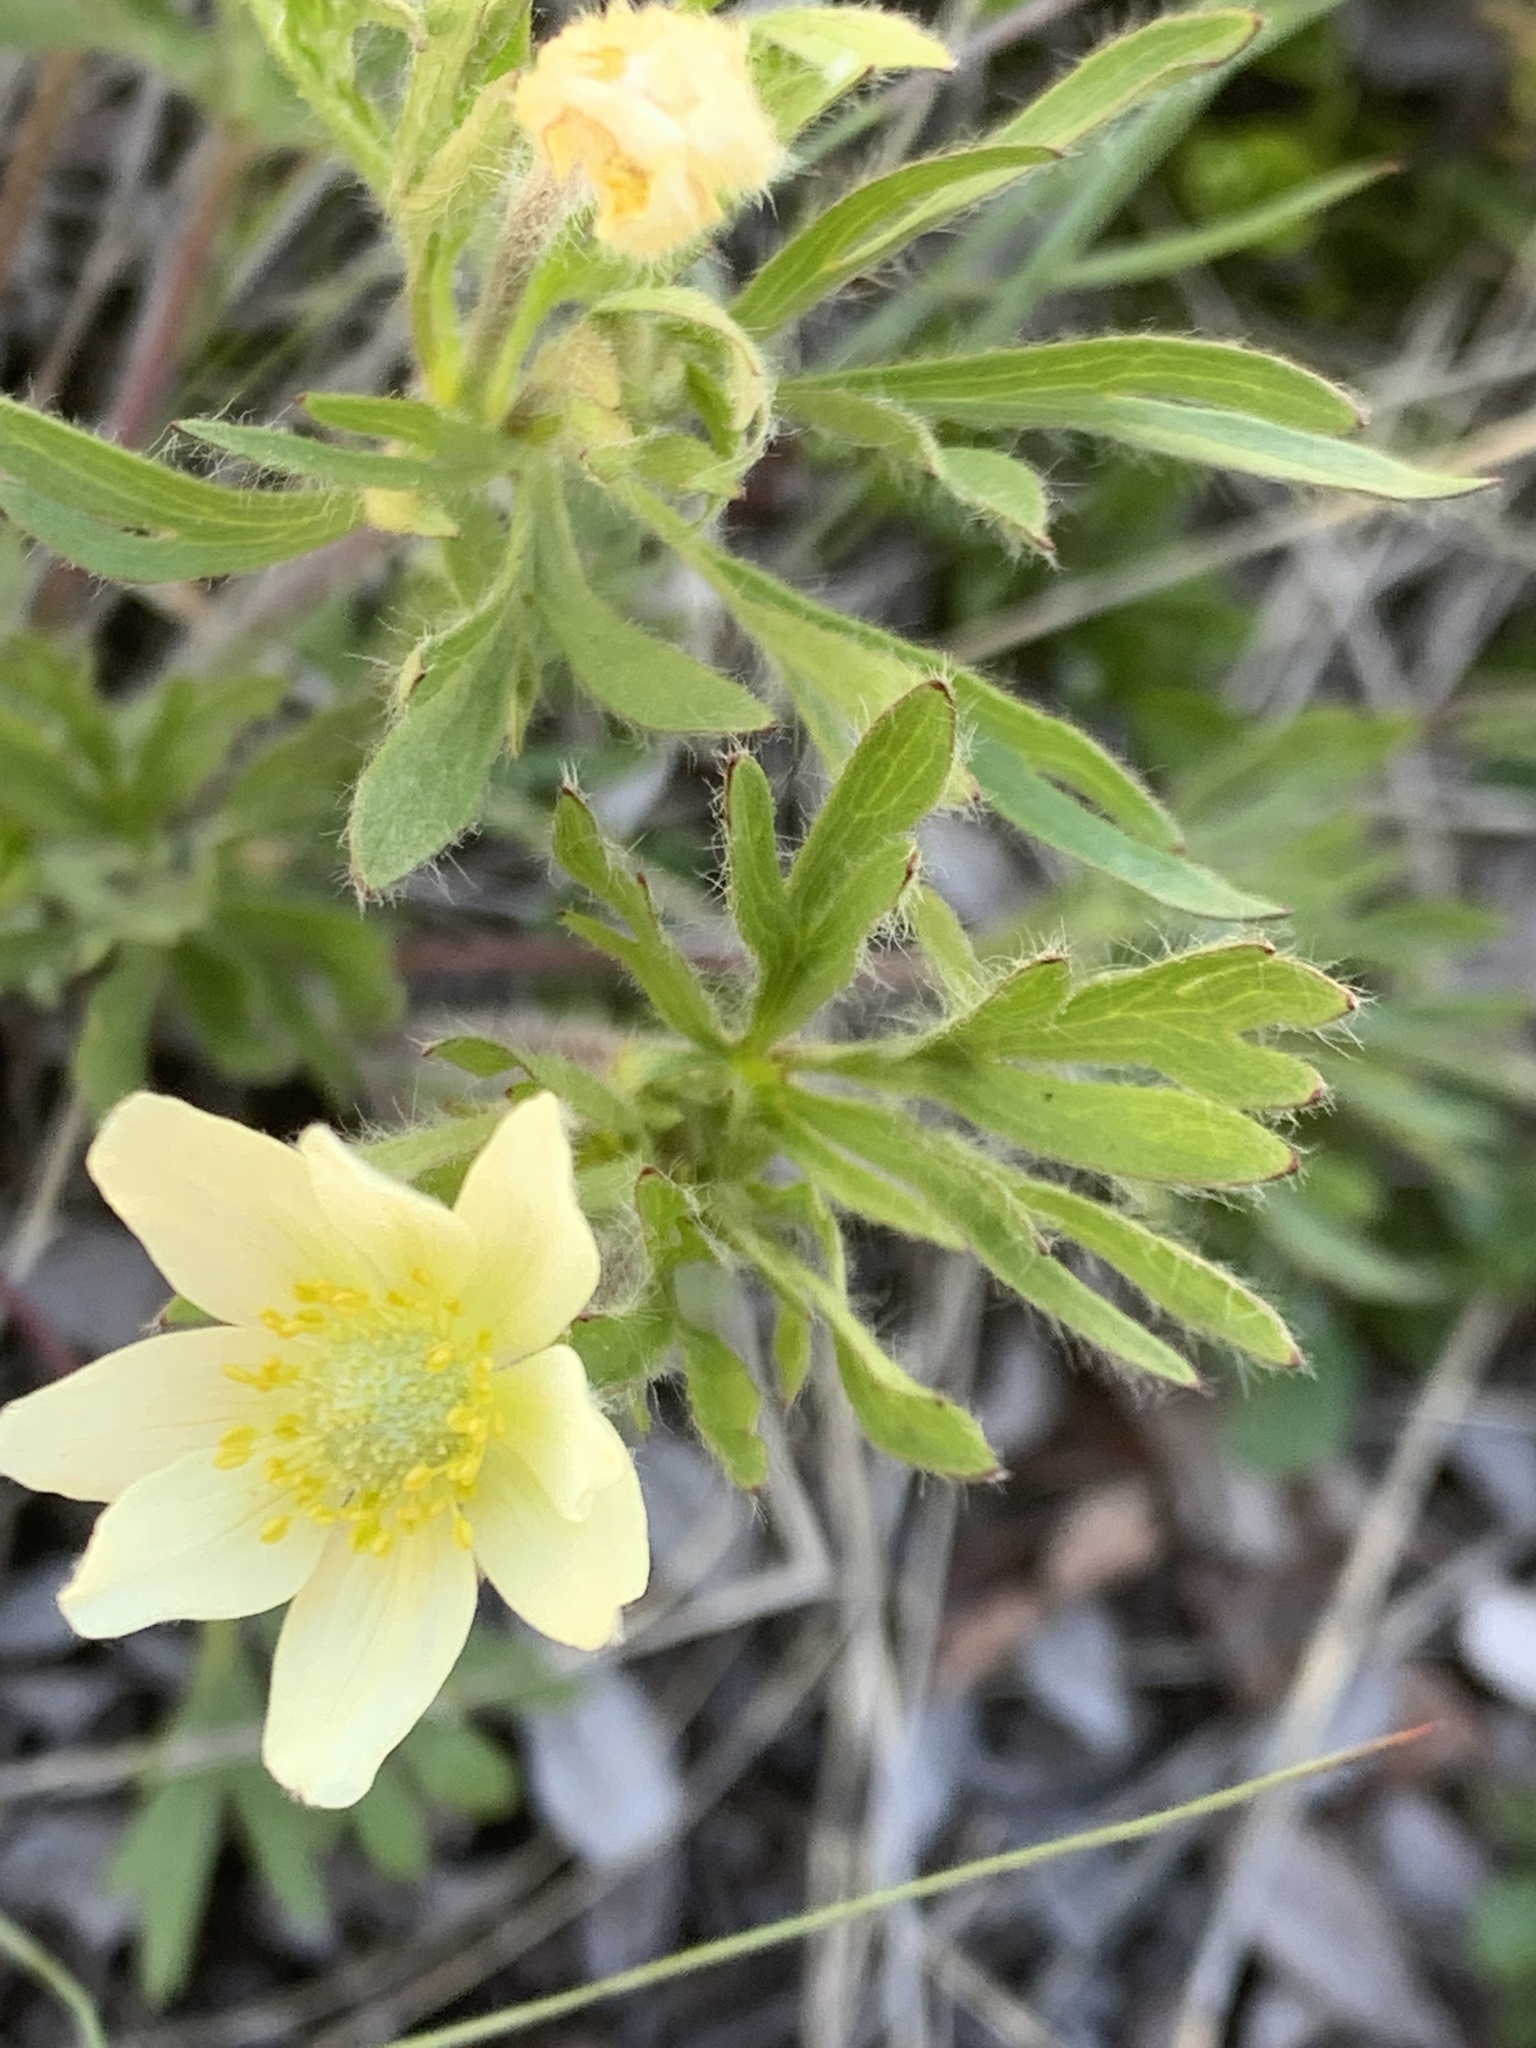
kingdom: Plantae
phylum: Tracheophyta
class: Magnoliopsida
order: Ranunculales
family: Ranunculaceae
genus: Anemone
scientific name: Anemone multifida
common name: Bird's-foot anemone
